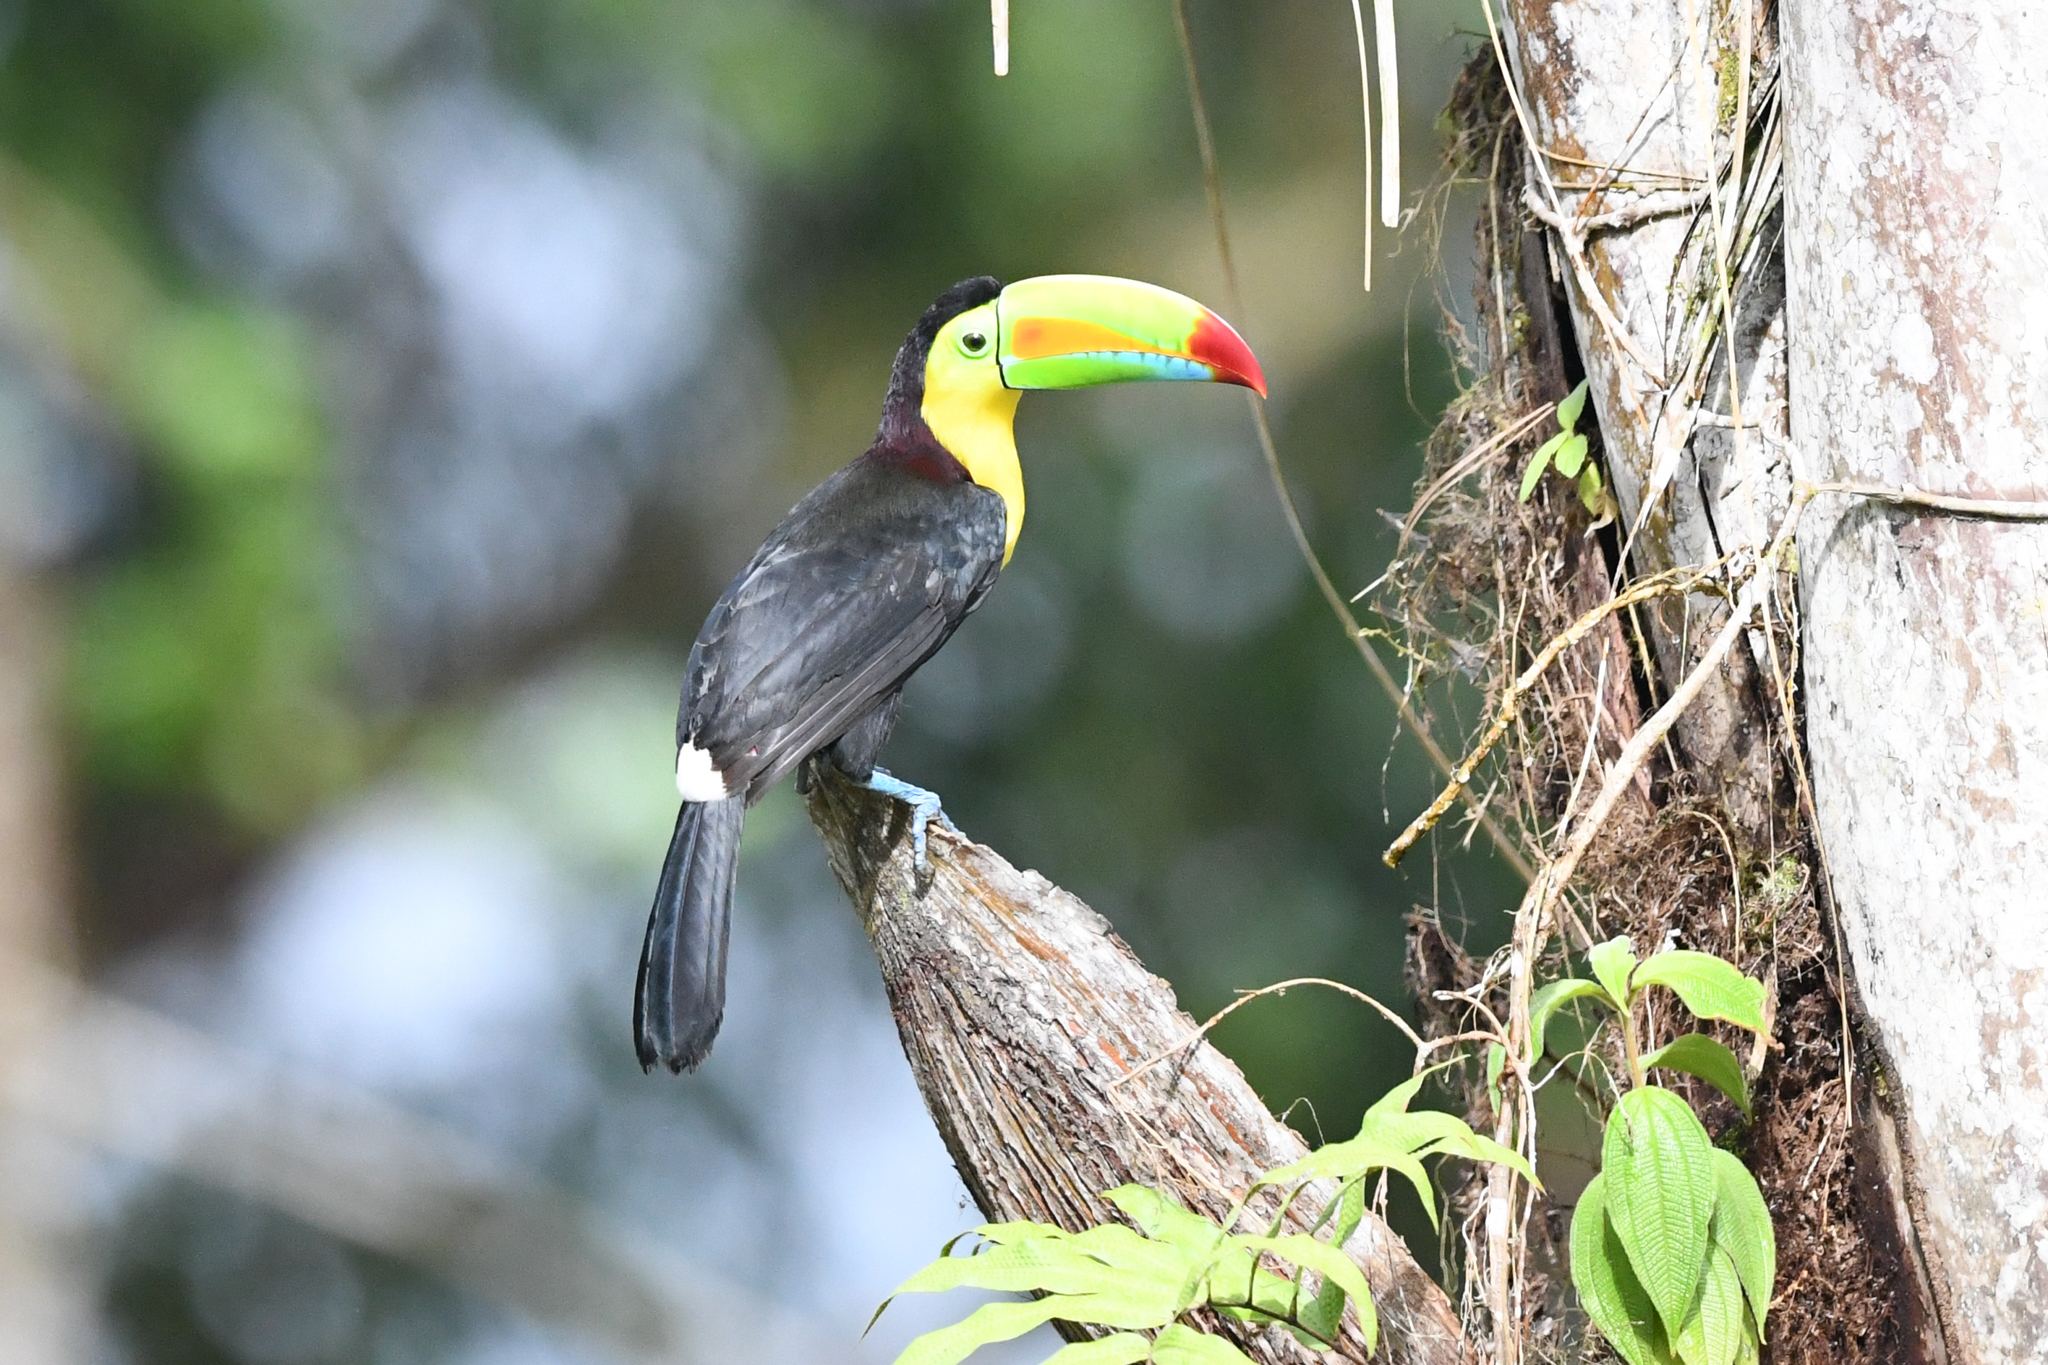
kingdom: Animalia
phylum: Chordata
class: Aves
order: Piciformes
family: Ramphastidae
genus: Ramphastos
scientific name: Ramphastos sulfuratus
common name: Keel-billed toucan
